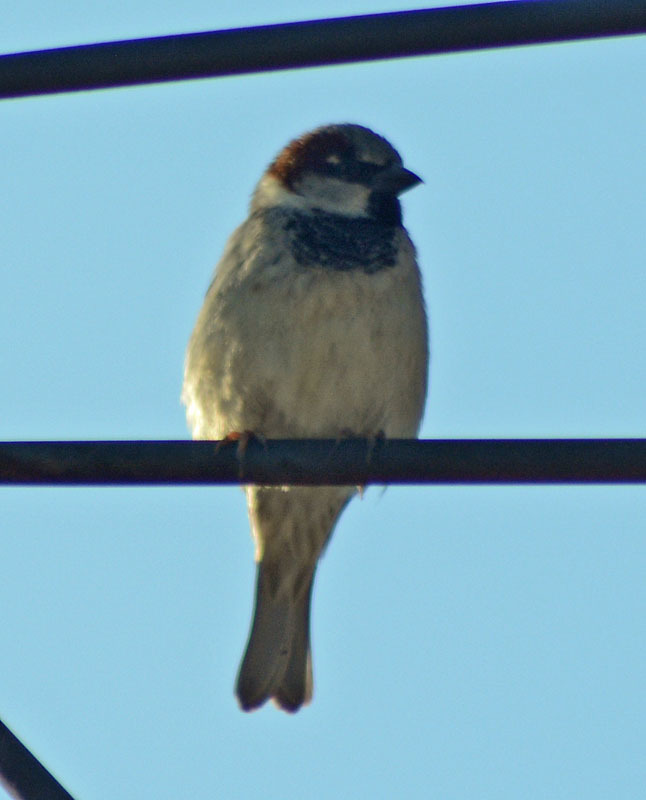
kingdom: Animalia
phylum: Chordata
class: Aves
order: Passeriformes
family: Passeridae
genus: Passer
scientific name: Passer domesticus
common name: House sparrow
